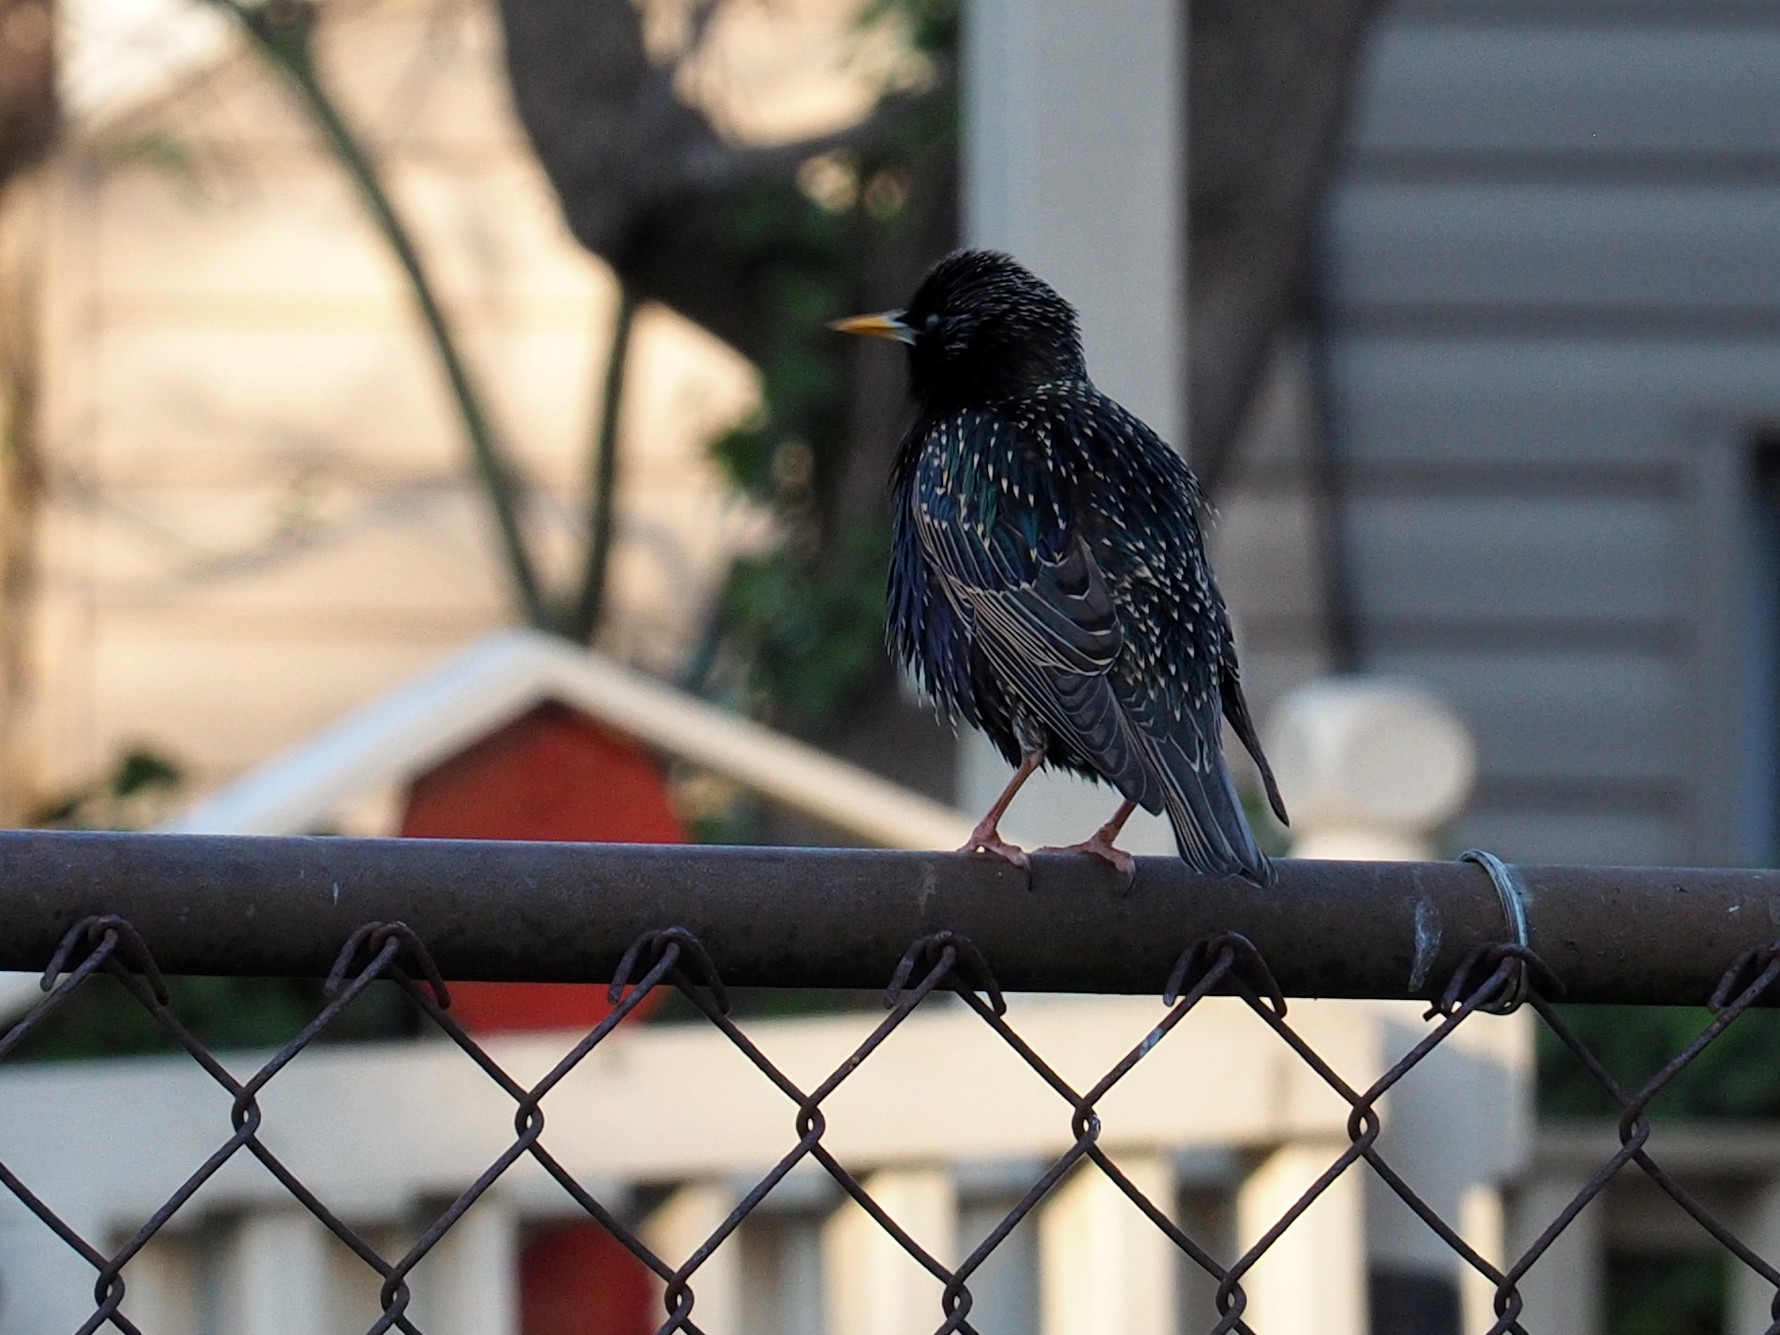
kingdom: Animalia
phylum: Chordata
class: Aves
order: Passeriformes
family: Sturnidae
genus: Sturnus
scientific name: Sturnus vulgaris
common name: Common starling
